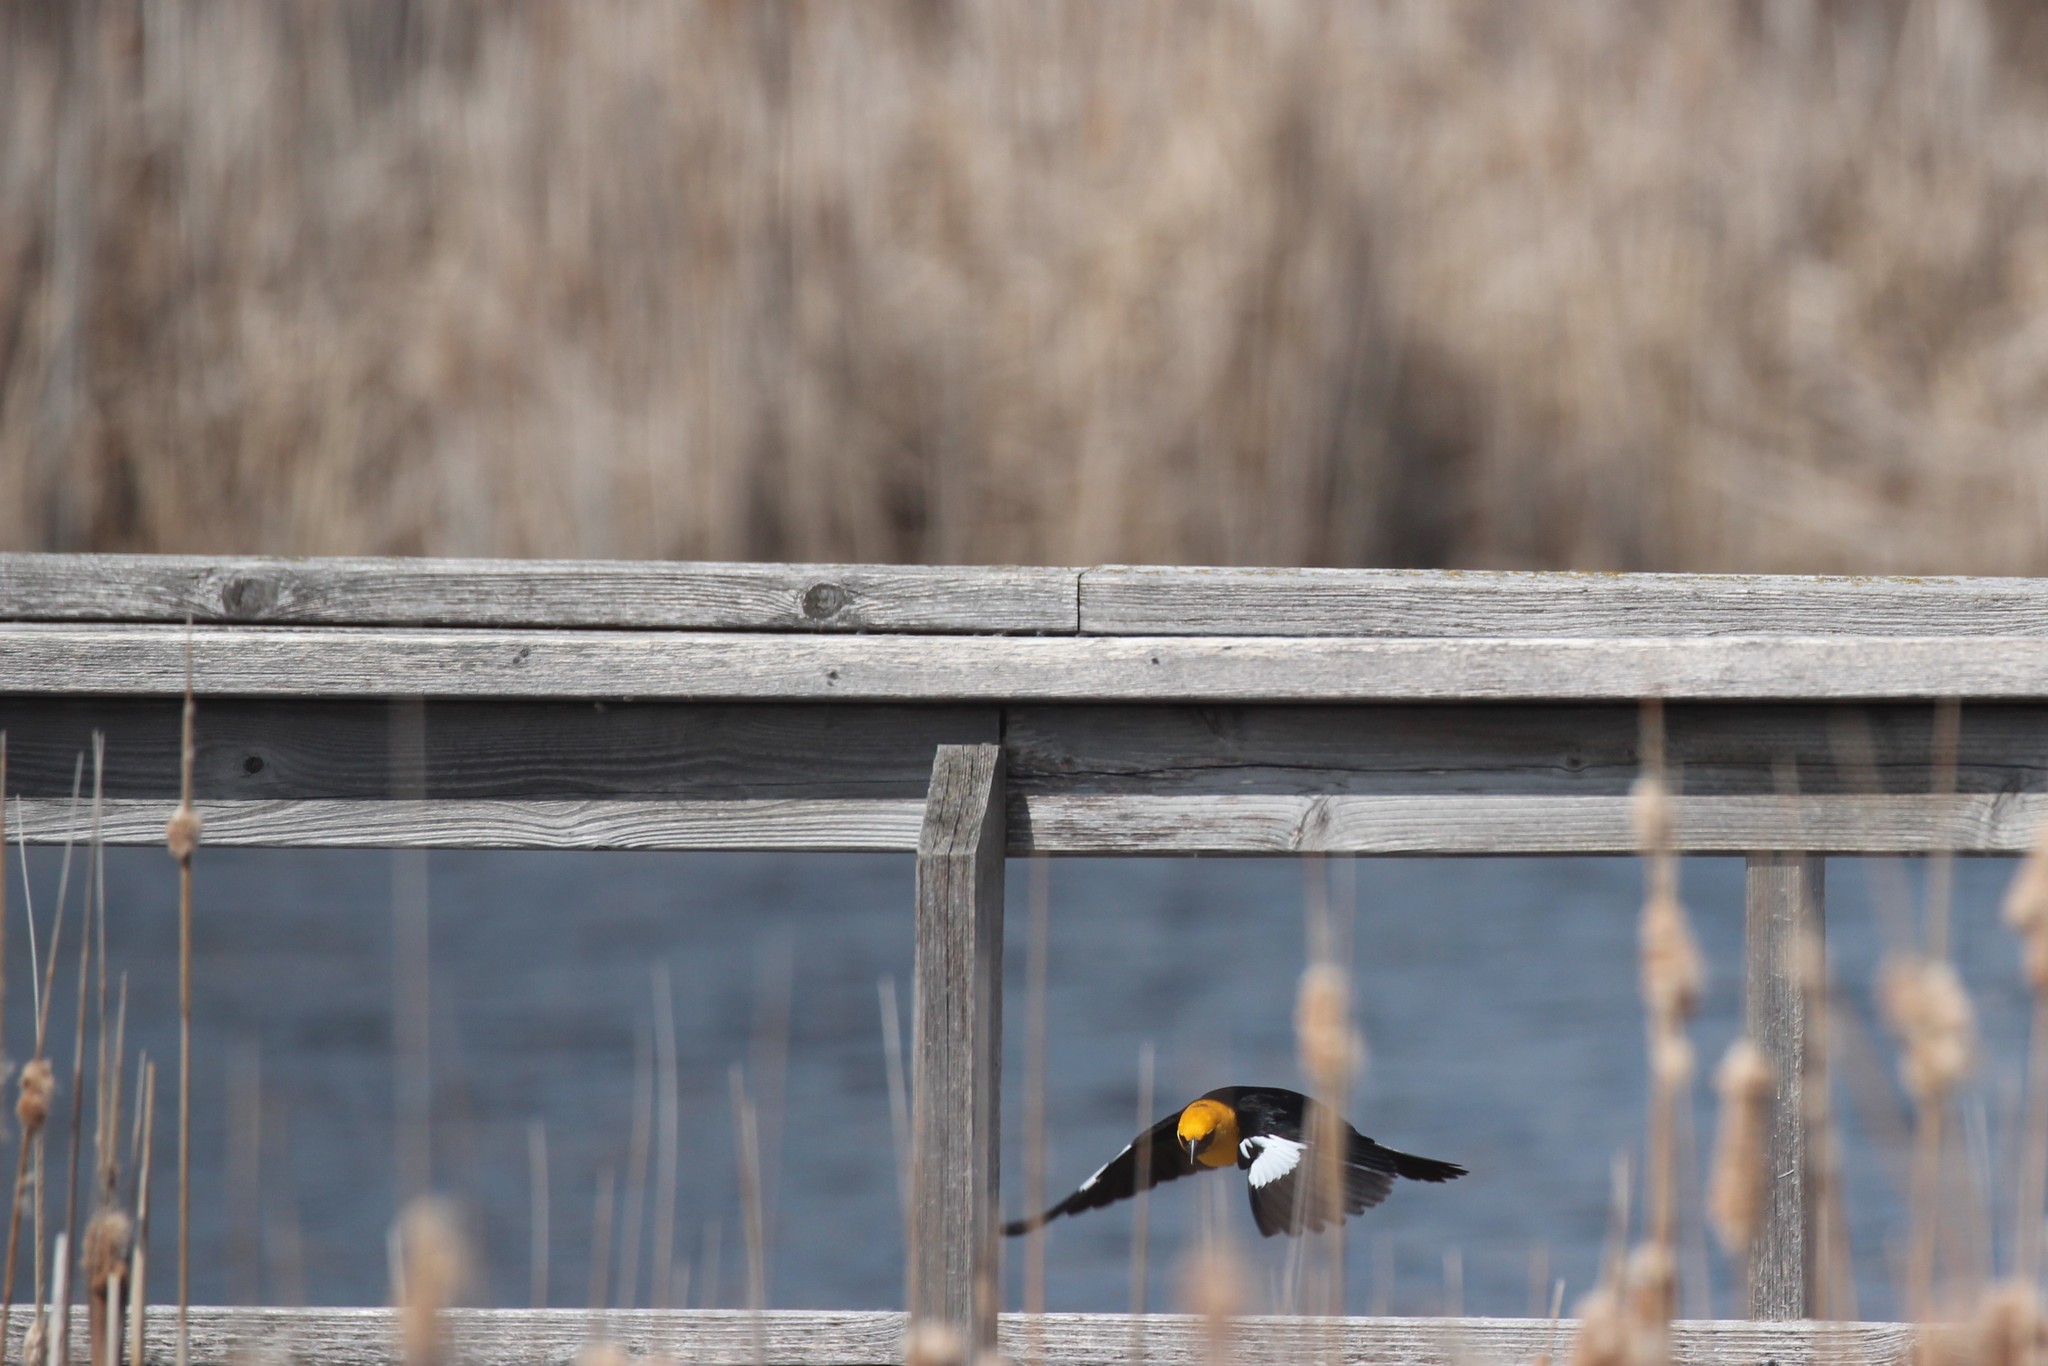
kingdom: Animalia
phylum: Chordata
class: Aves
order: Passeriformes
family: Icteridae
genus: Xanthocephalus
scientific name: Xanthocephalus xanthocephalus
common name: Yellow-headed blackbird
